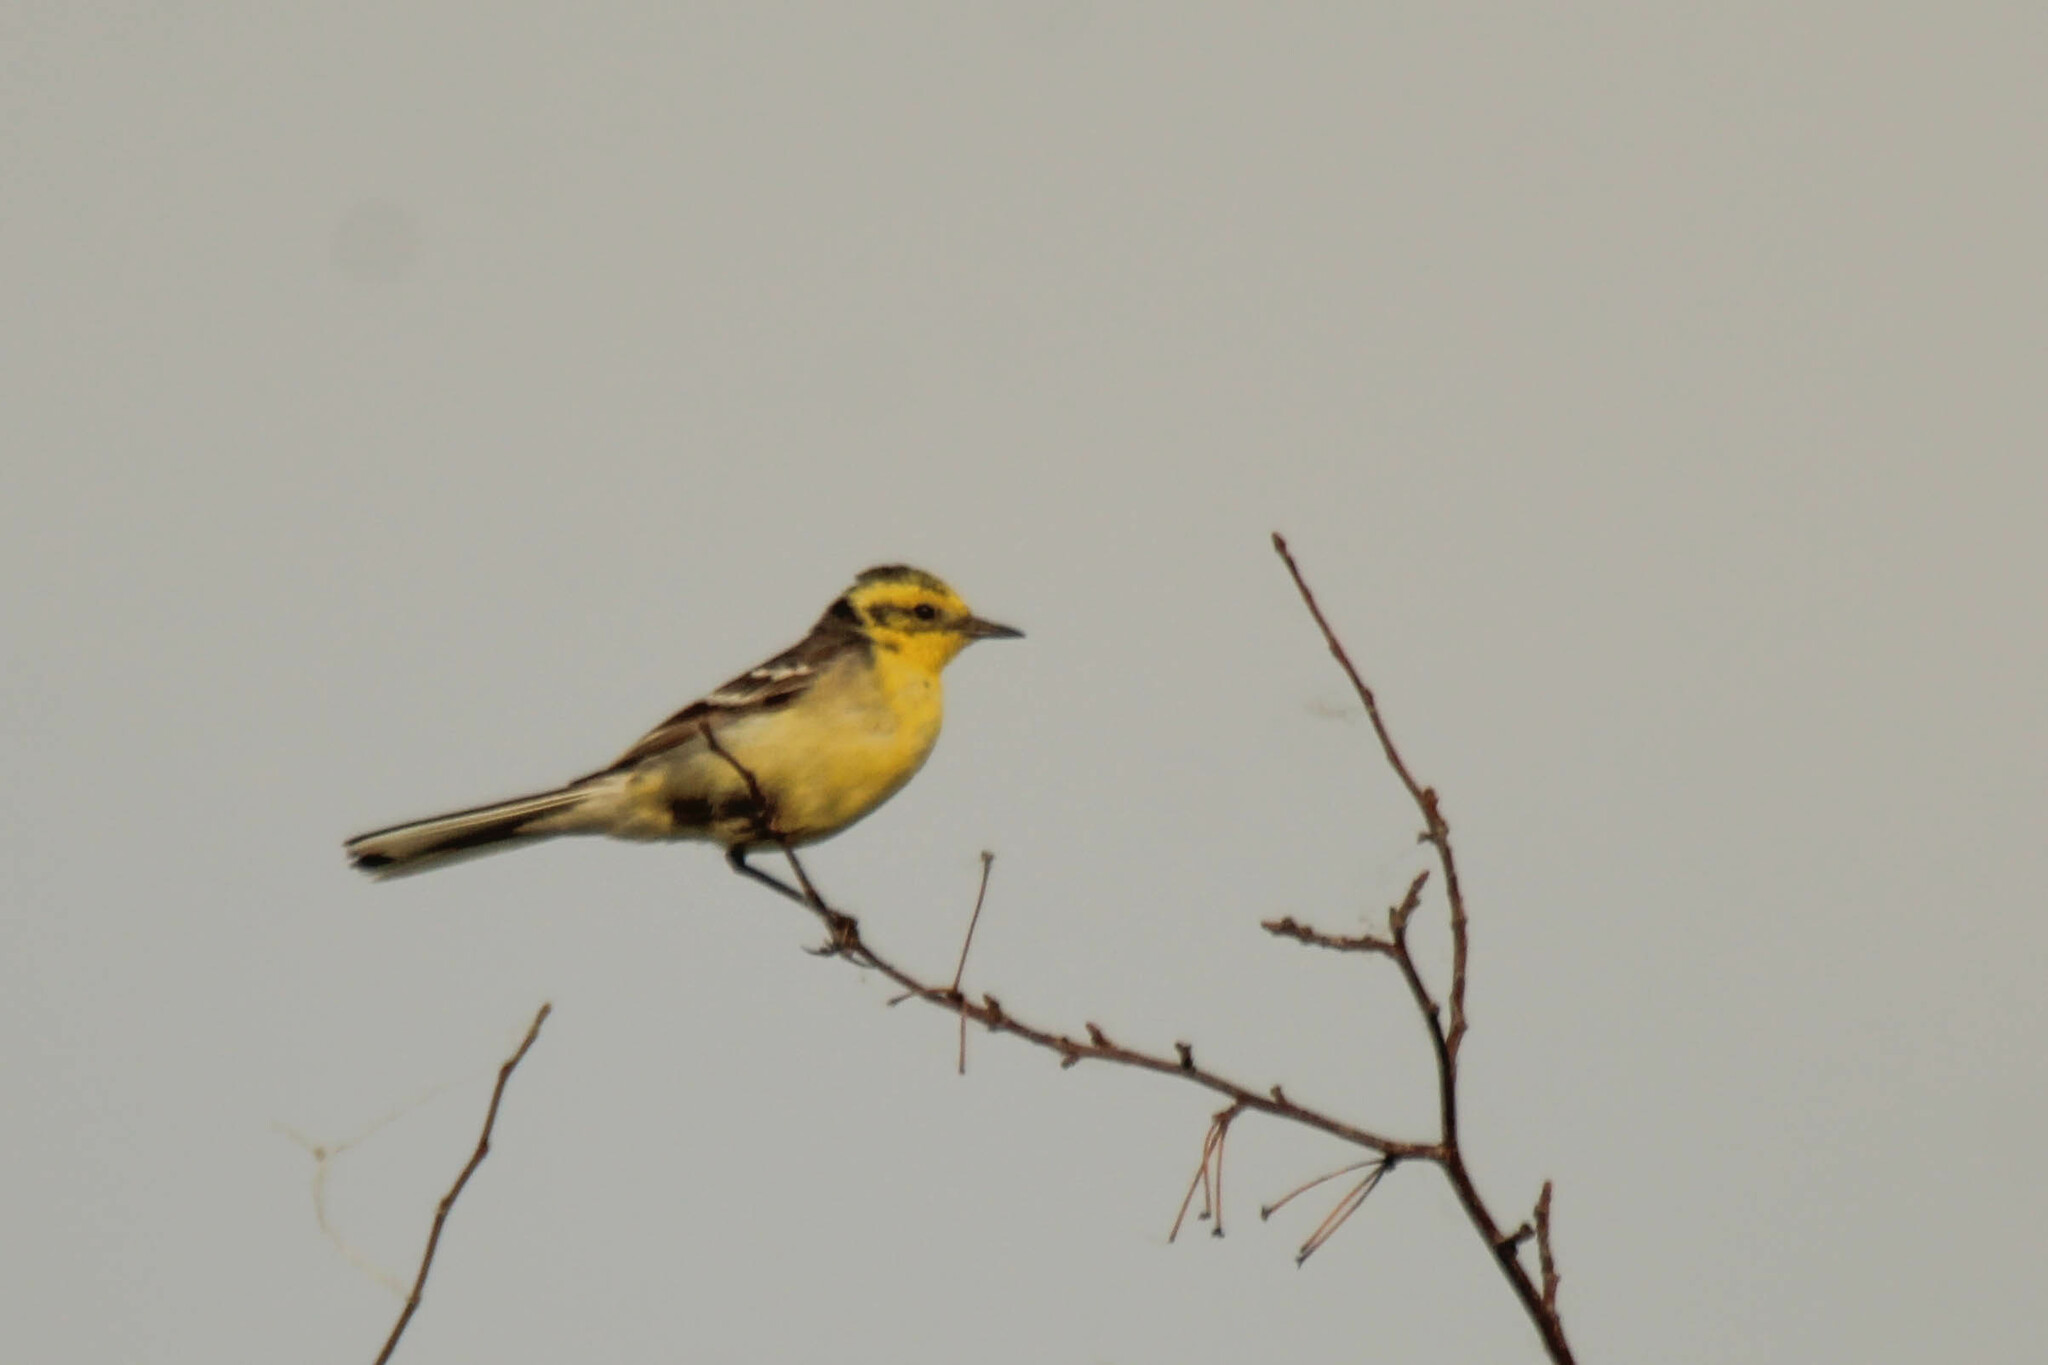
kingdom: Animalia
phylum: Chordata
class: Aves
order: Passeriformes
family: Motacillidae
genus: Motacilla
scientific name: Motacilla citreola
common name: Citrine wagtail
